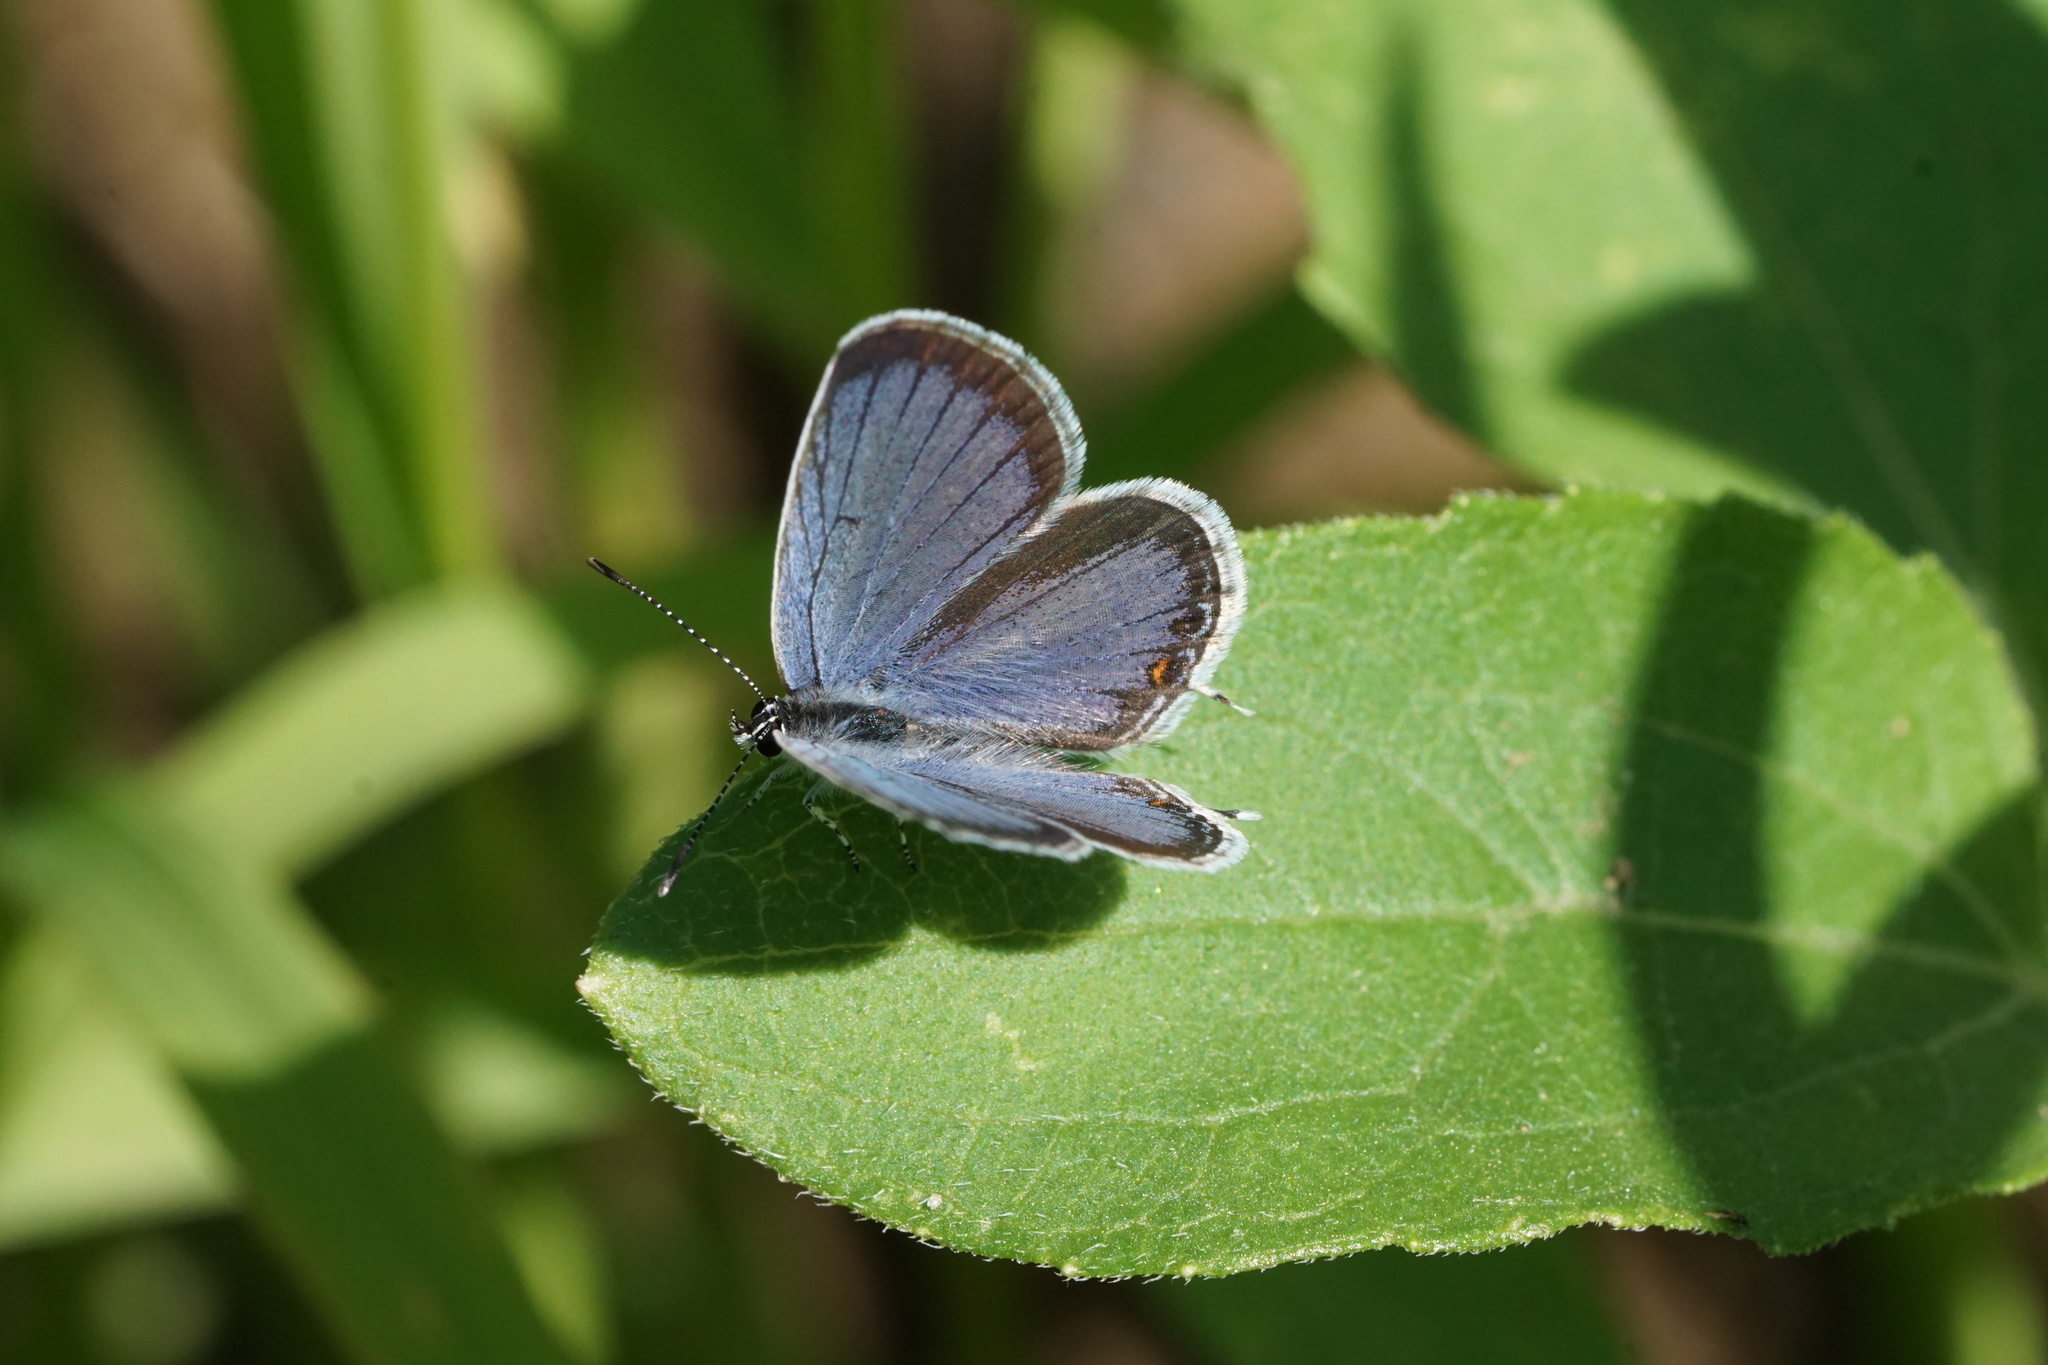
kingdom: Animalia
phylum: Arthropoda
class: Insecta
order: Lepidoptera
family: Lycaenidae
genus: Elkalyce
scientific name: Elkalyce comyntas
